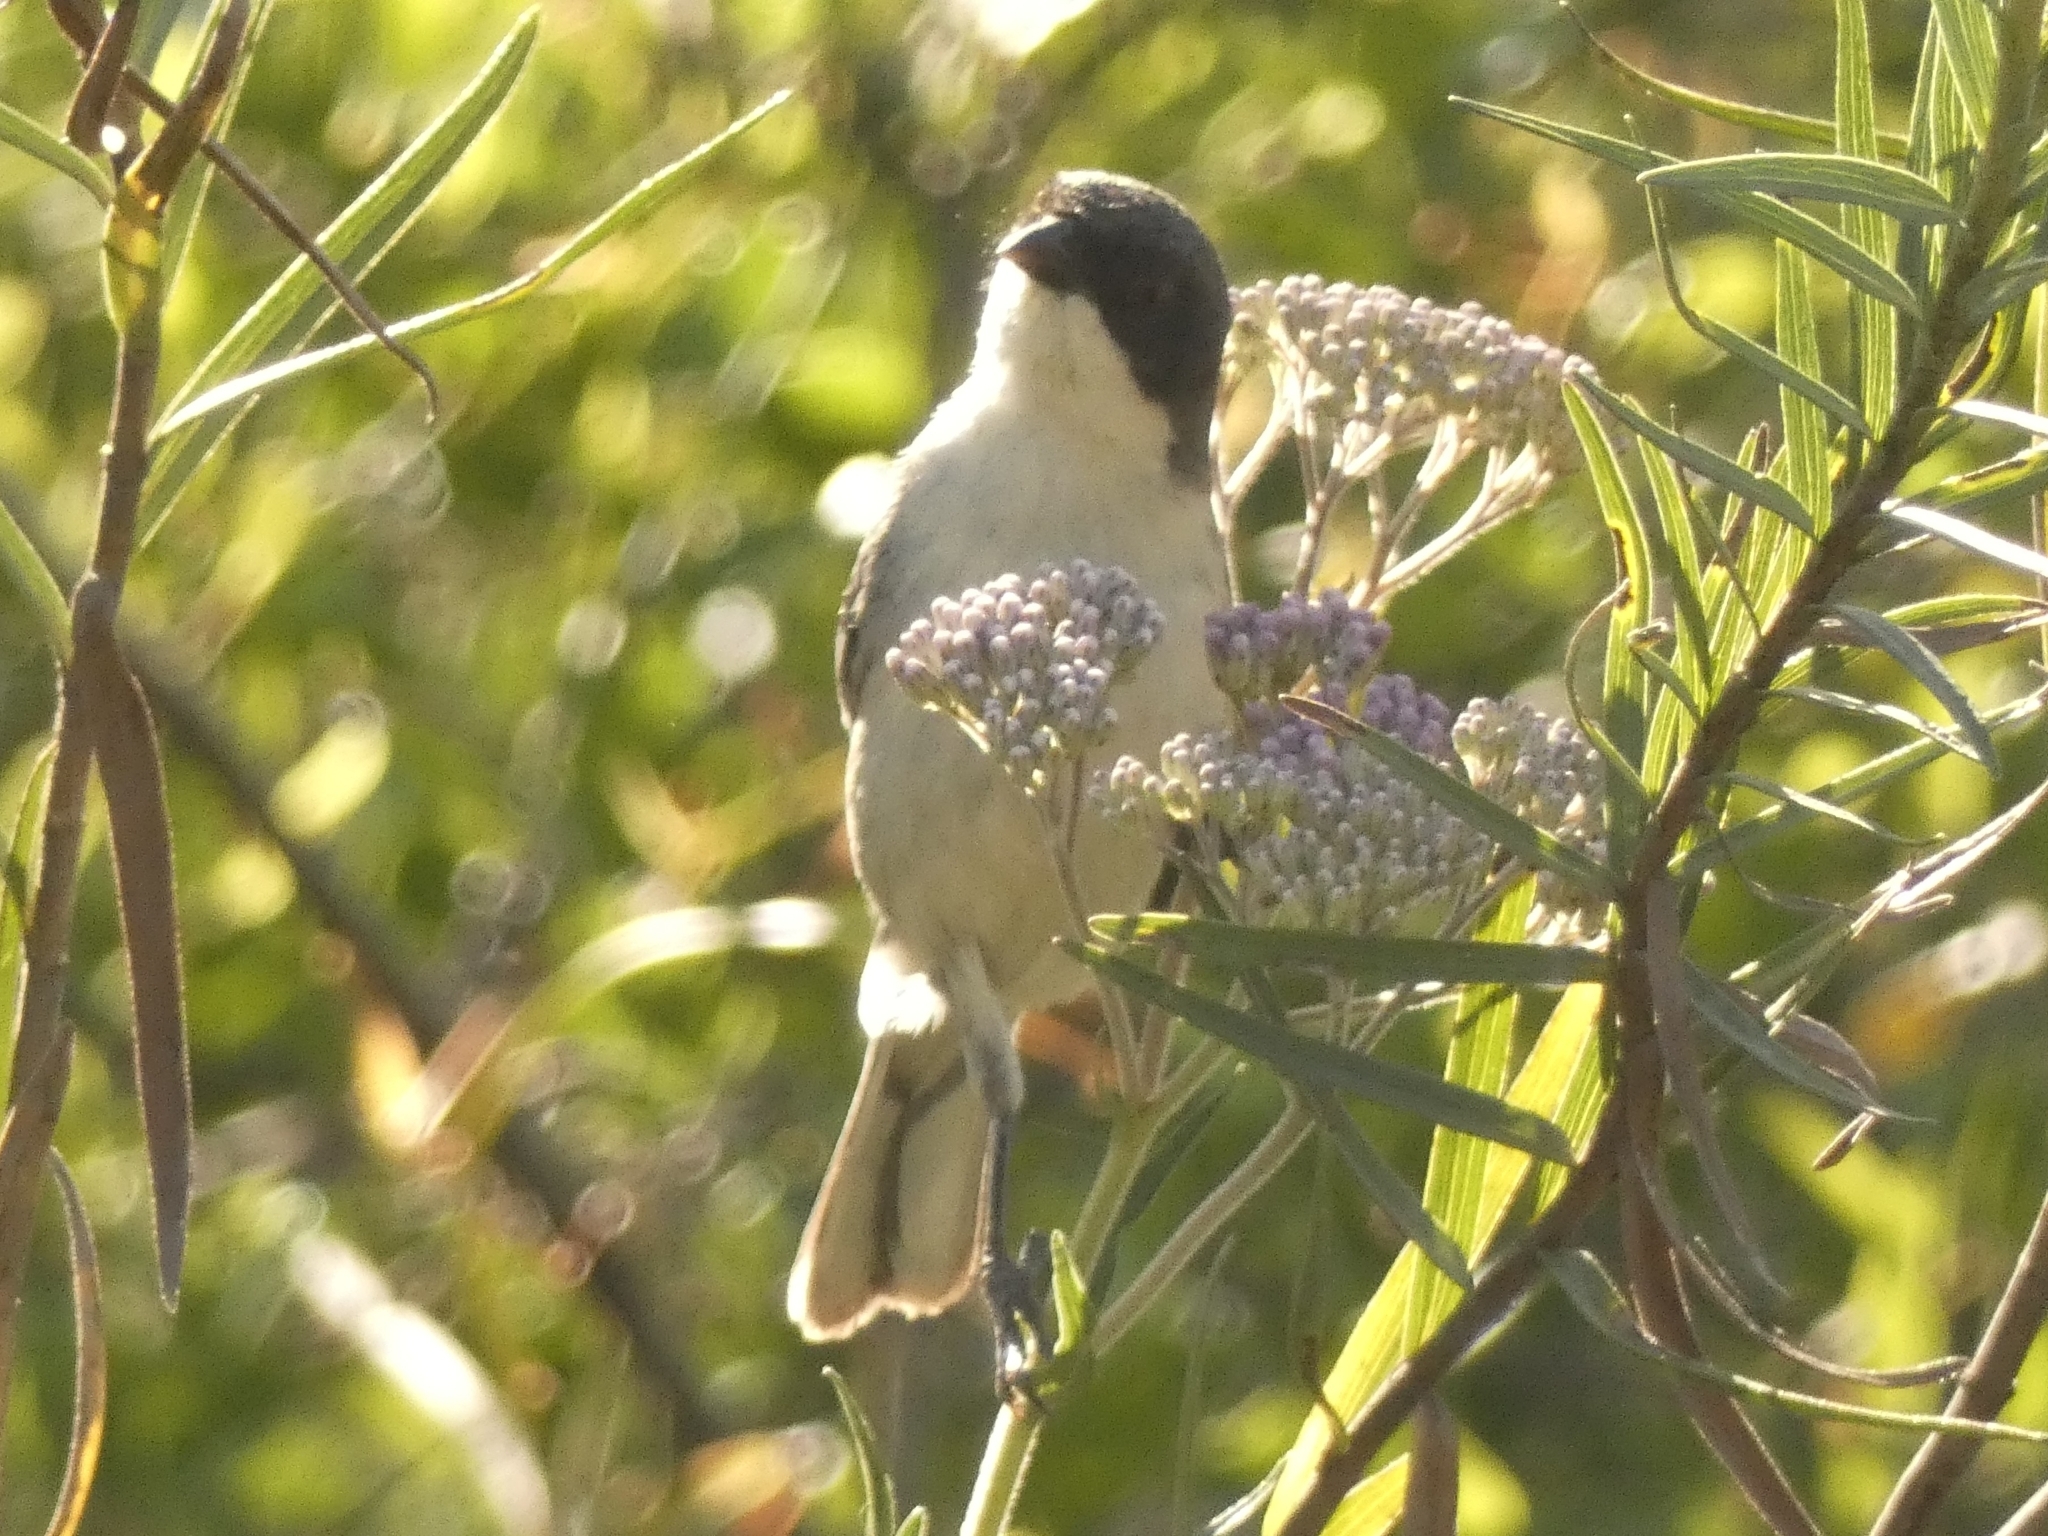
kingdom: Animalia
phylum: Chordata
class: Aves
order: Passeriformes
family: Thraupidae
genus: Microspingus
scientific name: Microspingus melanoleucus
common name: Black-capped warbling-finch
